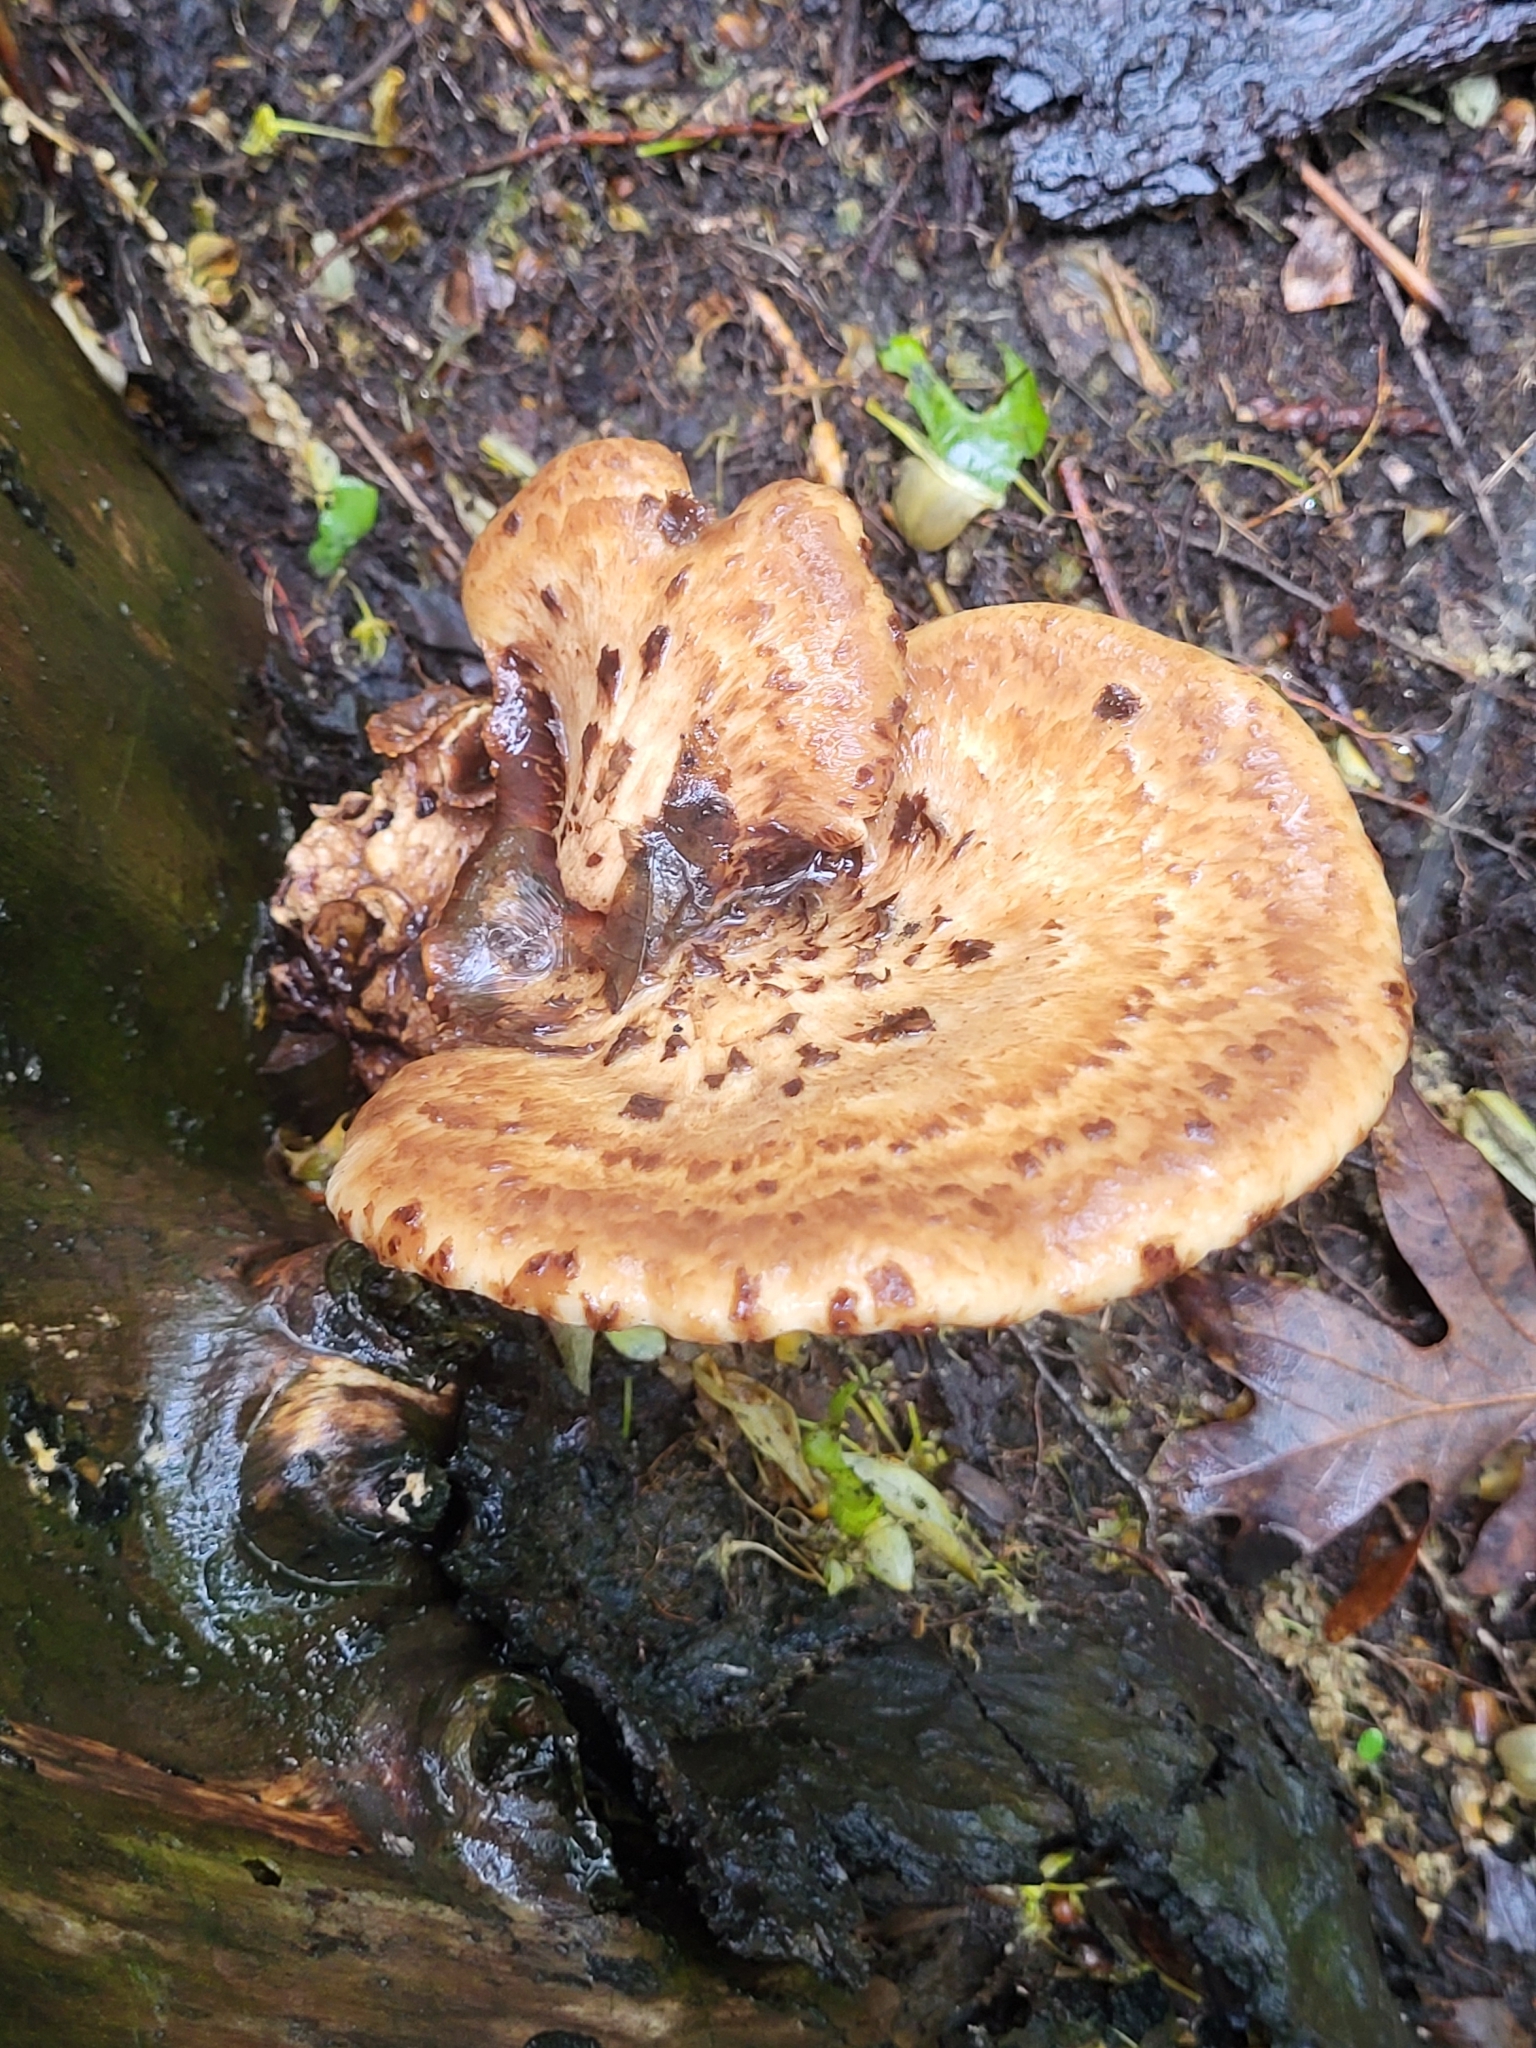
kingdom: Fungi
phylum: Basidiomycota
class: Agaricomycetes
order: Polyporales
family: Polyporaceae
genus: Cerioporus
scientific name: Cerioporus squamosus
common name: Dryad's saddle
